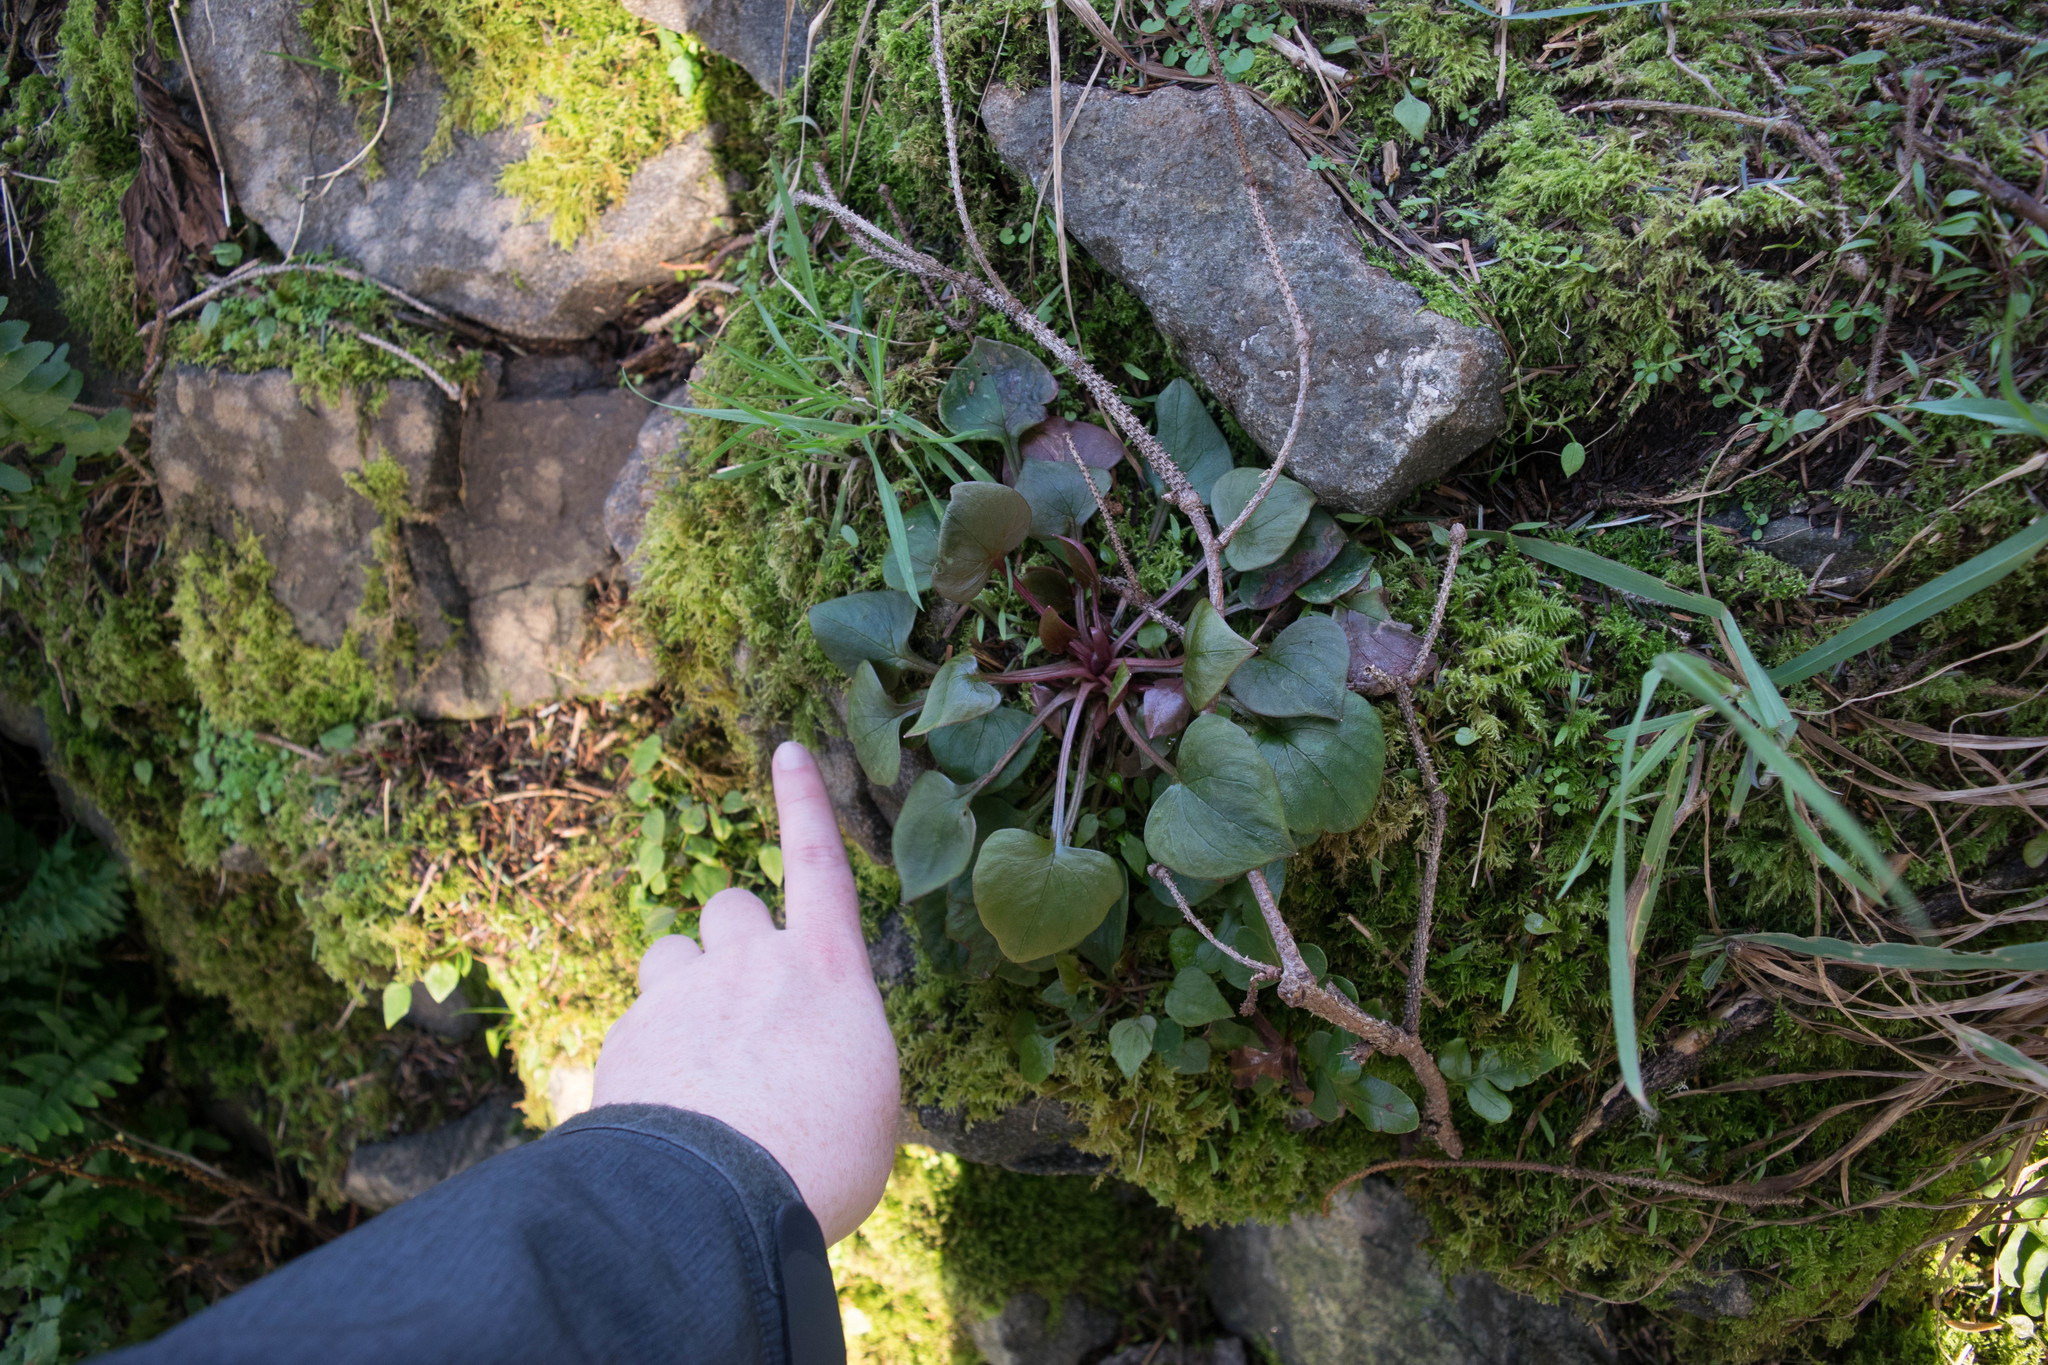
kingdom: Plantae
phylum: Tracheophyta
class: Magnoliopsida
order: Caryophyllales
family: Montiaceae
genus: Claytonia
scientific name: Claytonia sibirica
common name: Pink purslane
